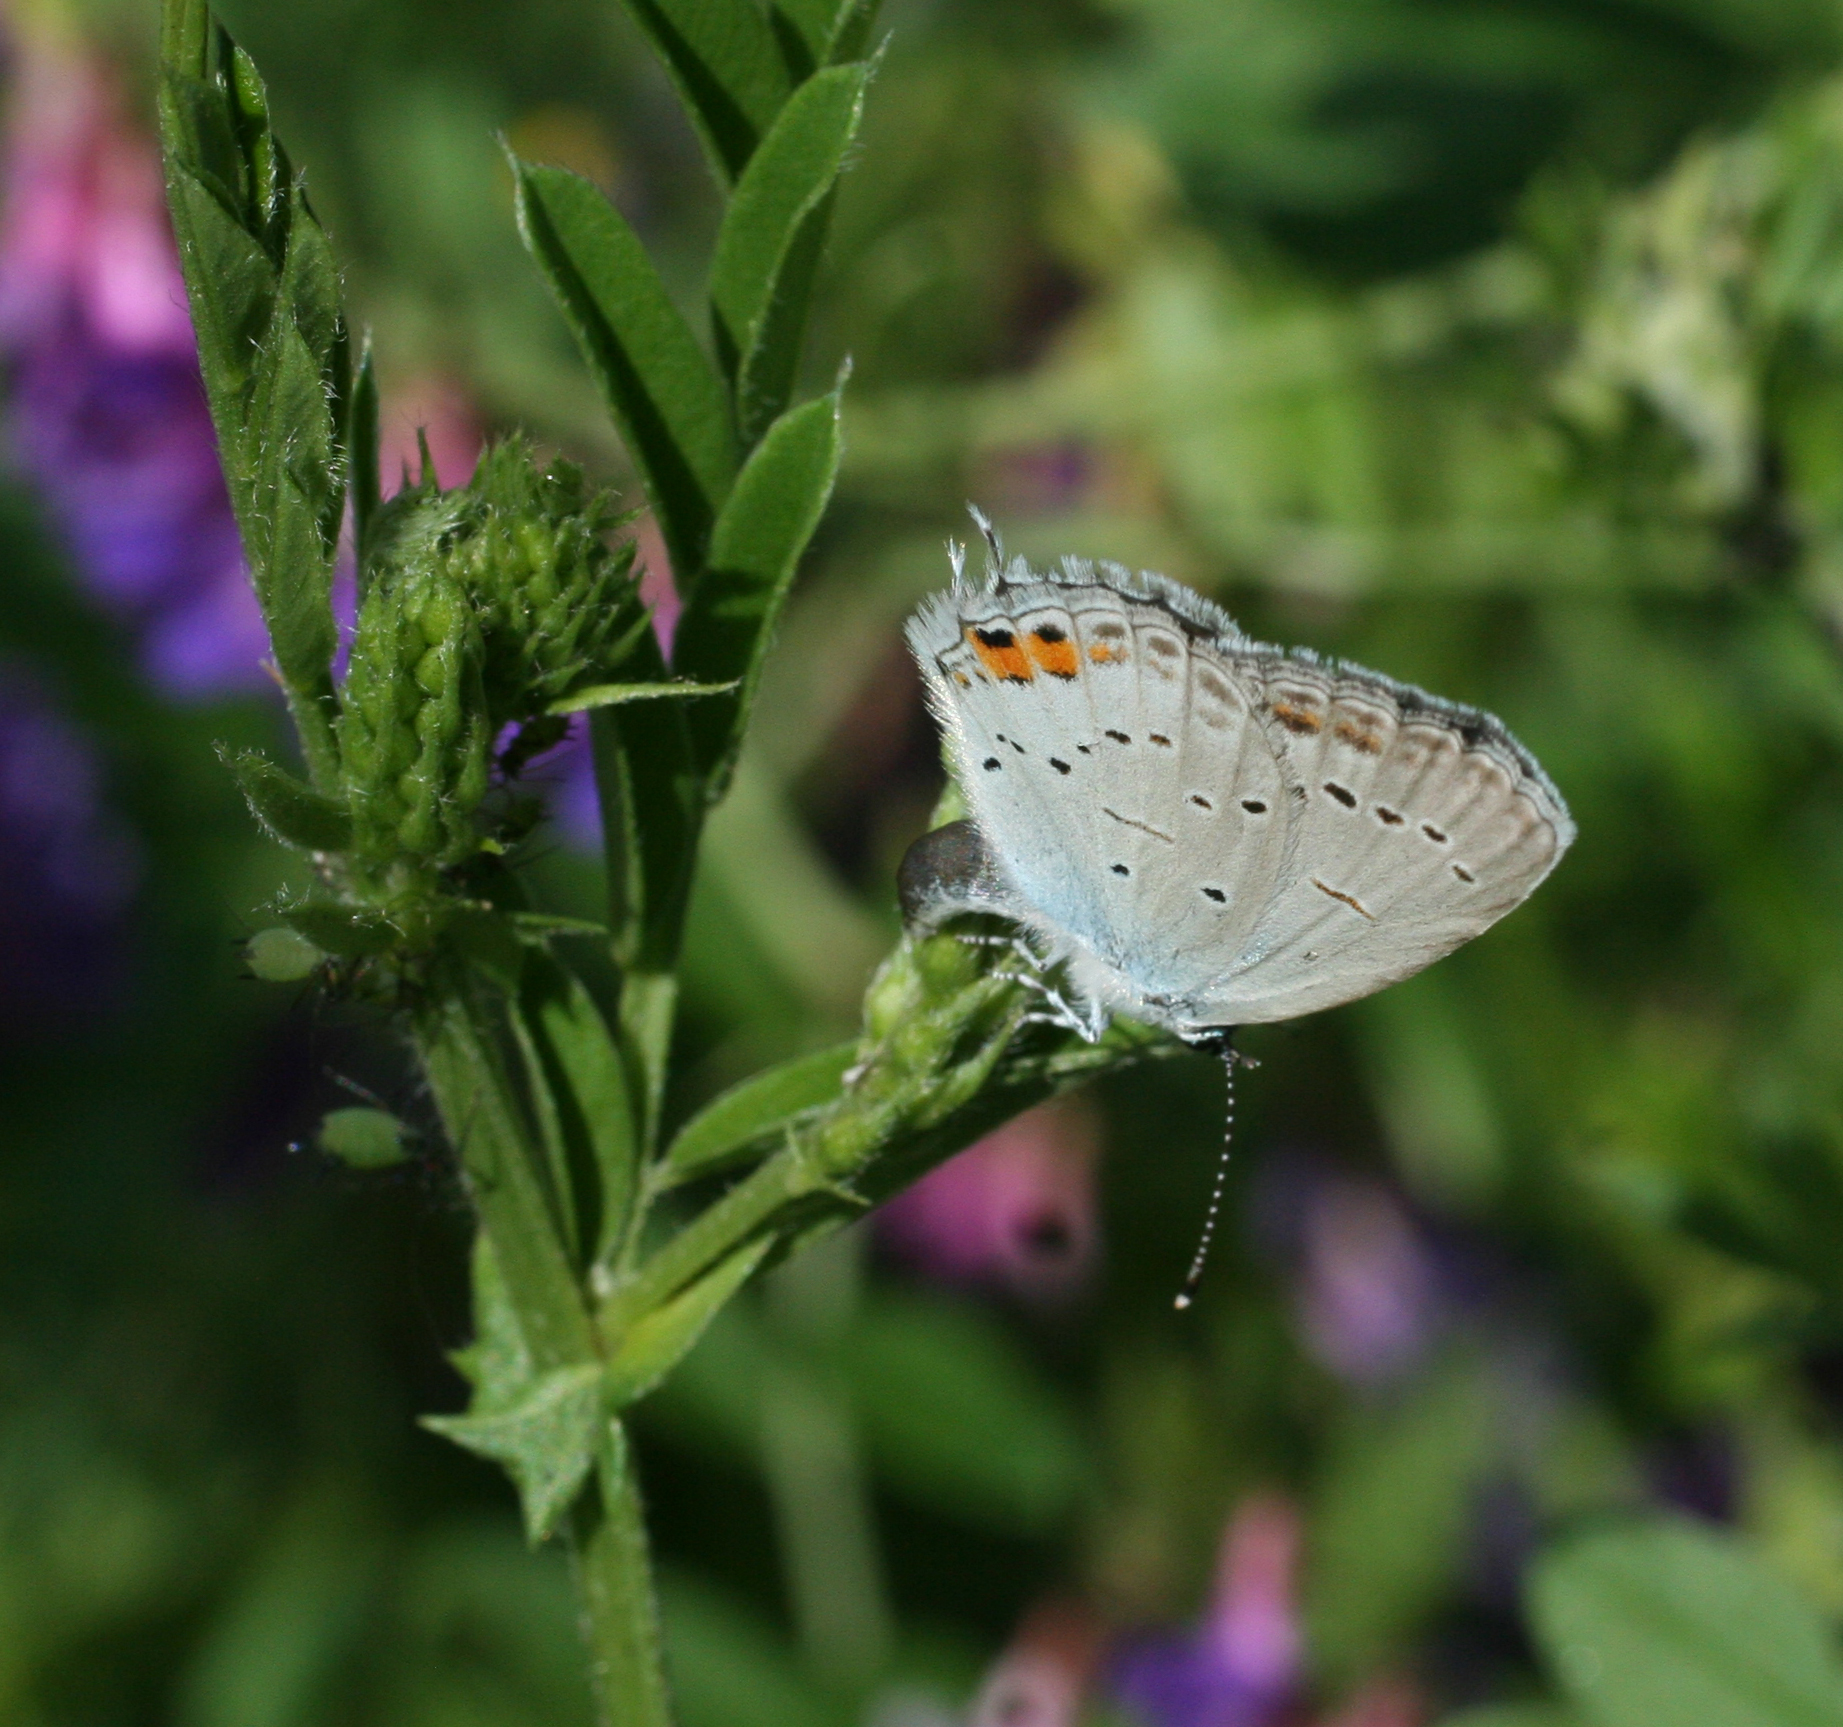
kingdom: Animalia
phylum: Arthropoda
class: Insecta
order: Lepidoptera
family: Lycaenidae
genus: Elkalyce
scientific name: Elkalyce argiades
